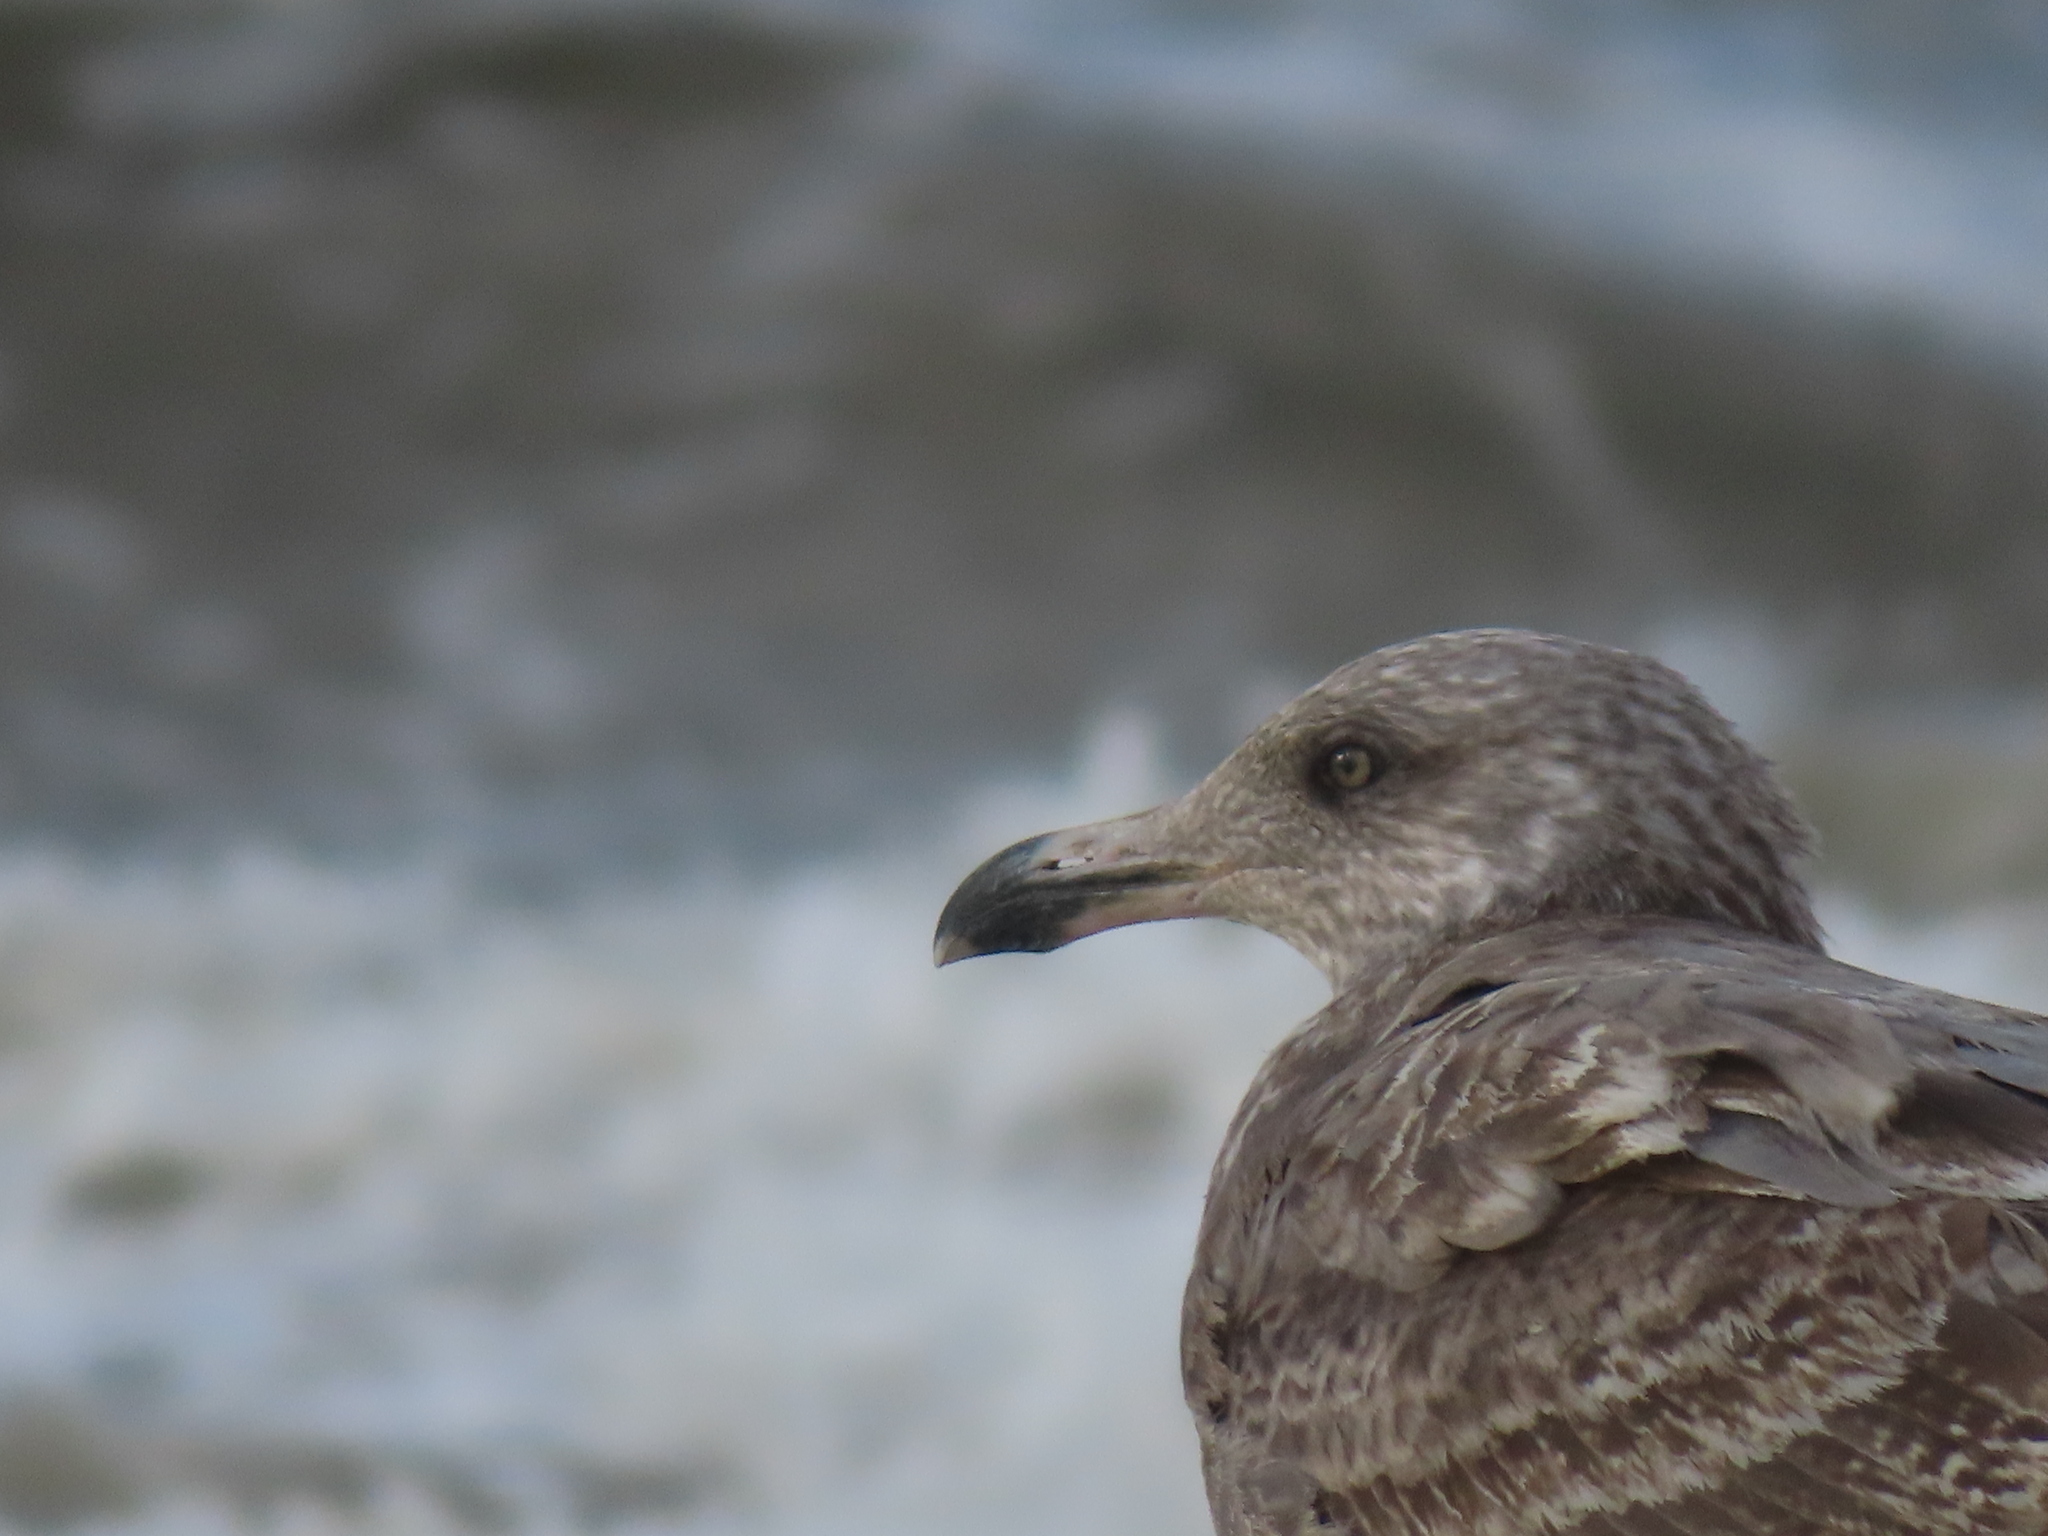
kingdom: Animalia
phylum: Chordata
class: Aves
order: Charadriiformes
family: Laridae
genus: Larus
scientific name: Larus argentatus
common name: Herring gull
